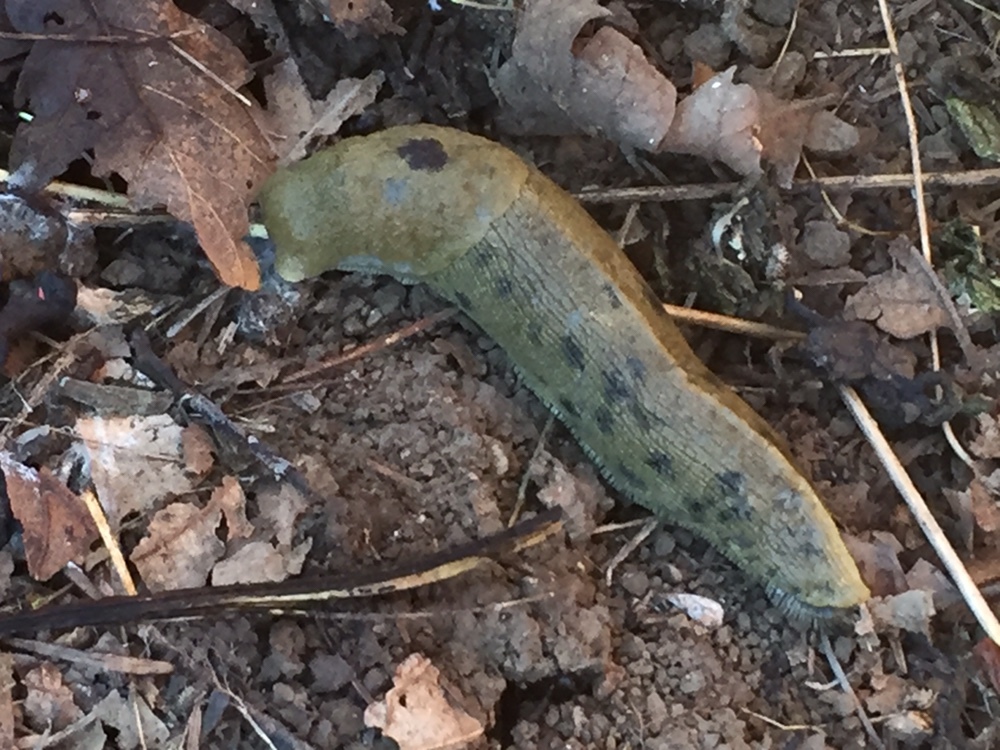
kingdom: Animalia
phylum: Mollusca
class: Gastropoda
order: Stylommatophora
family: Ariolimacidae
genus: Ariolimax
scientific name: Ariolimax buttoni
